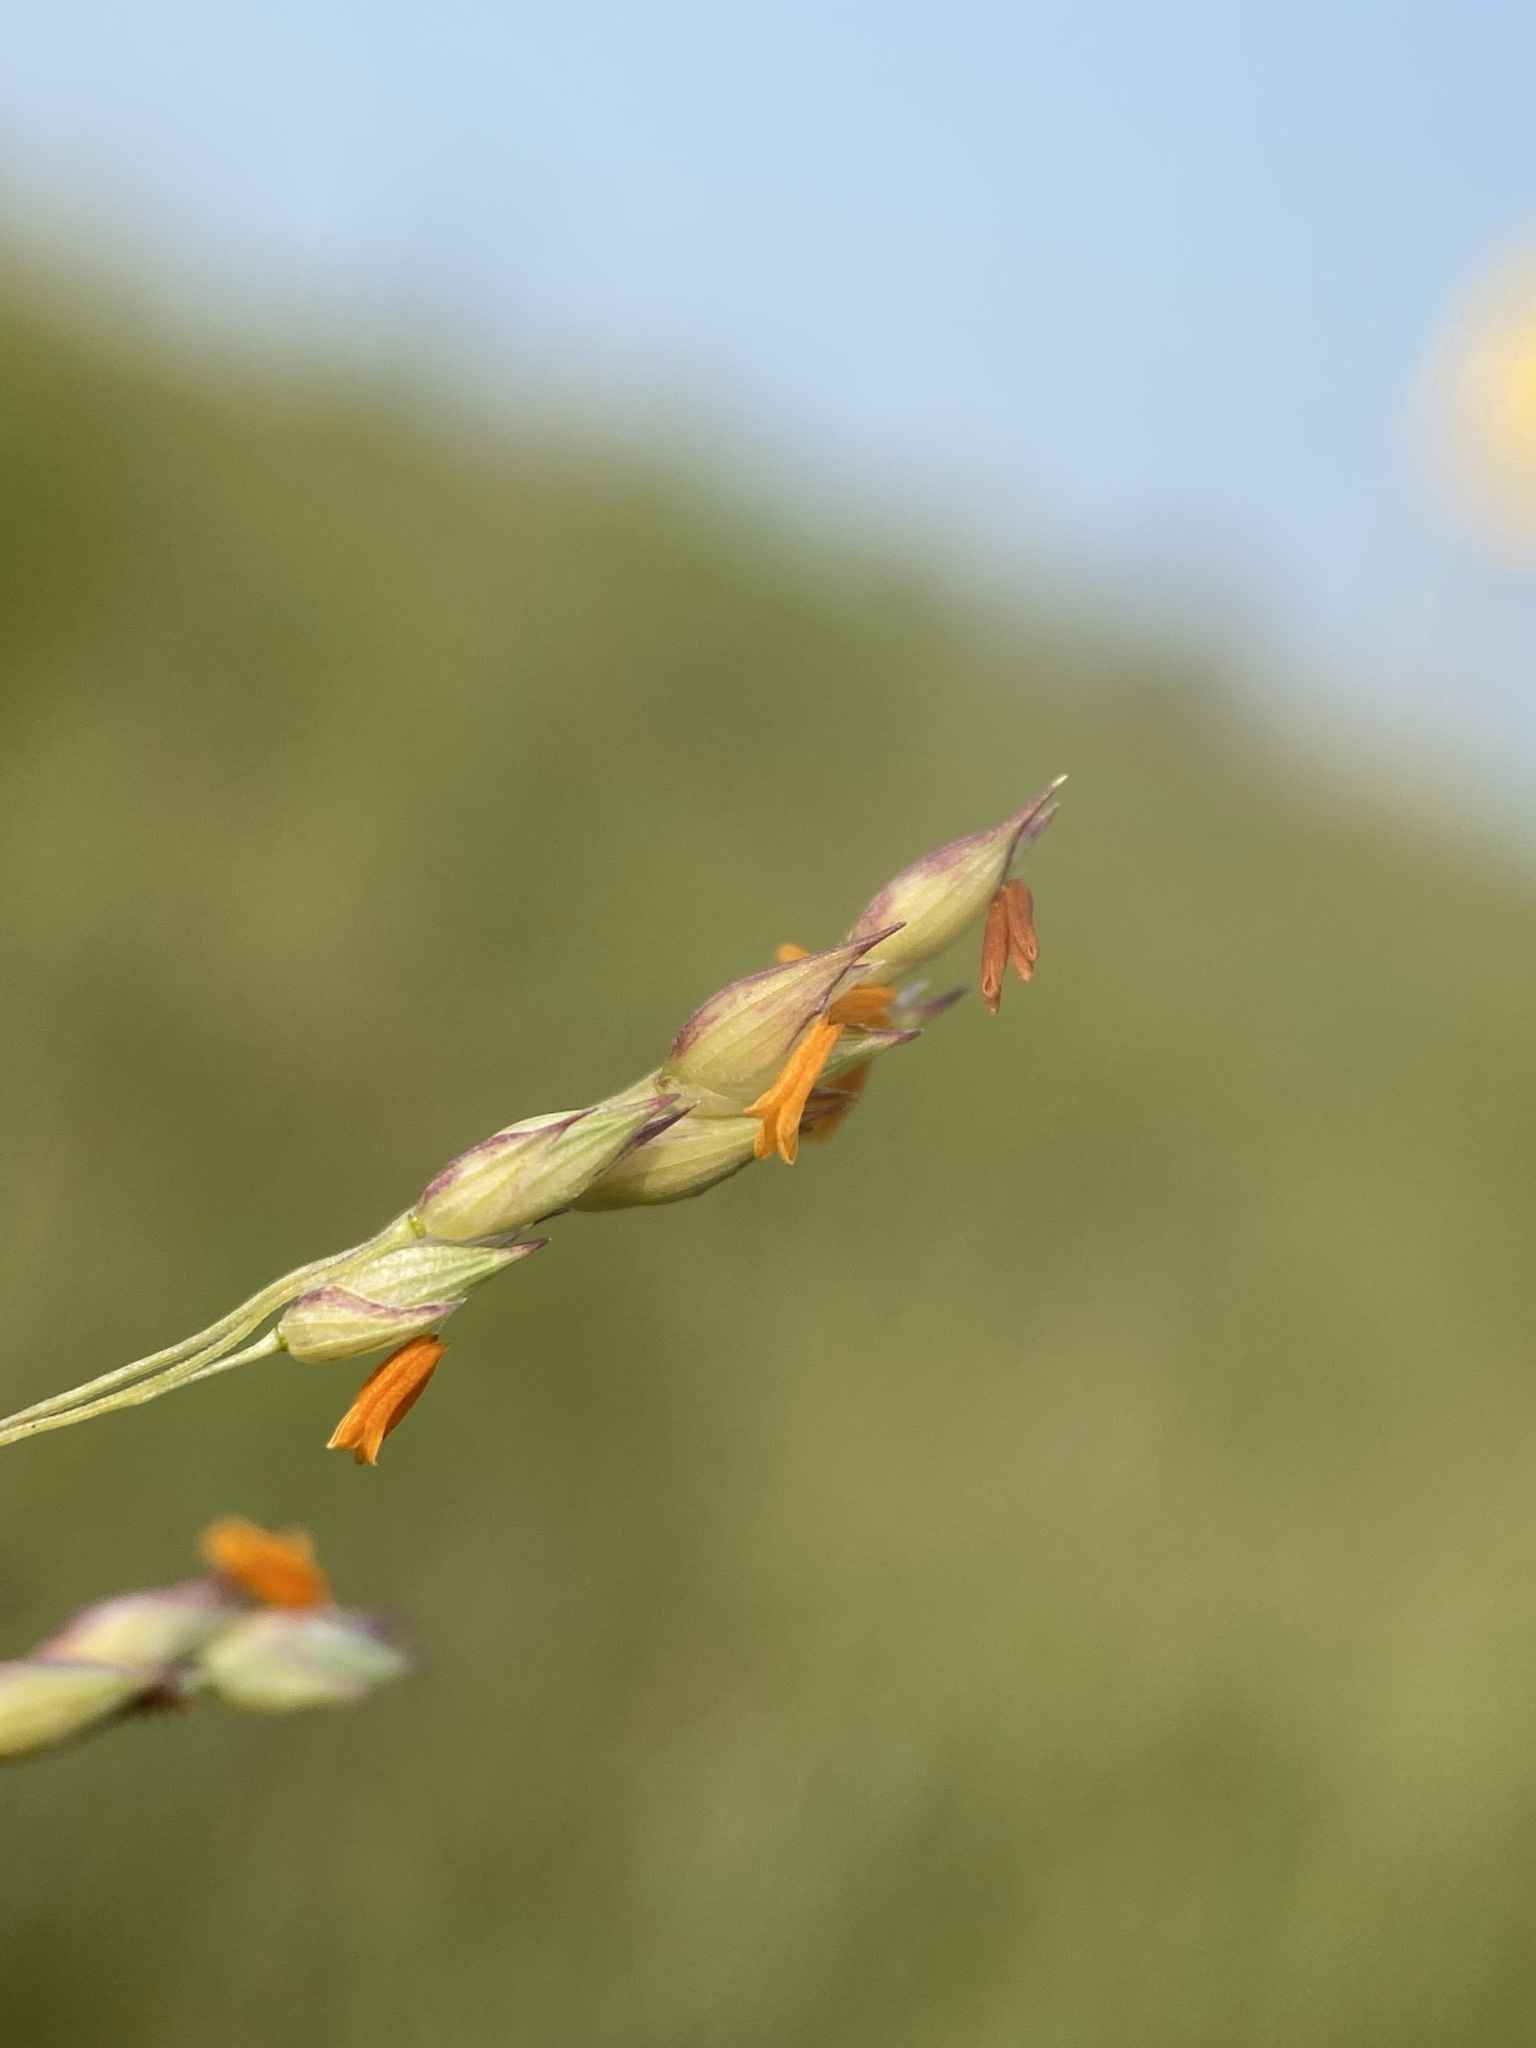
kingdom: Plantae
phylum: Tracheophyta
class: Liliopsida
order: Poales
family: Poaceae
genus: Panicum
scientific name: Panicum virgatum
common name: Switchgrass
